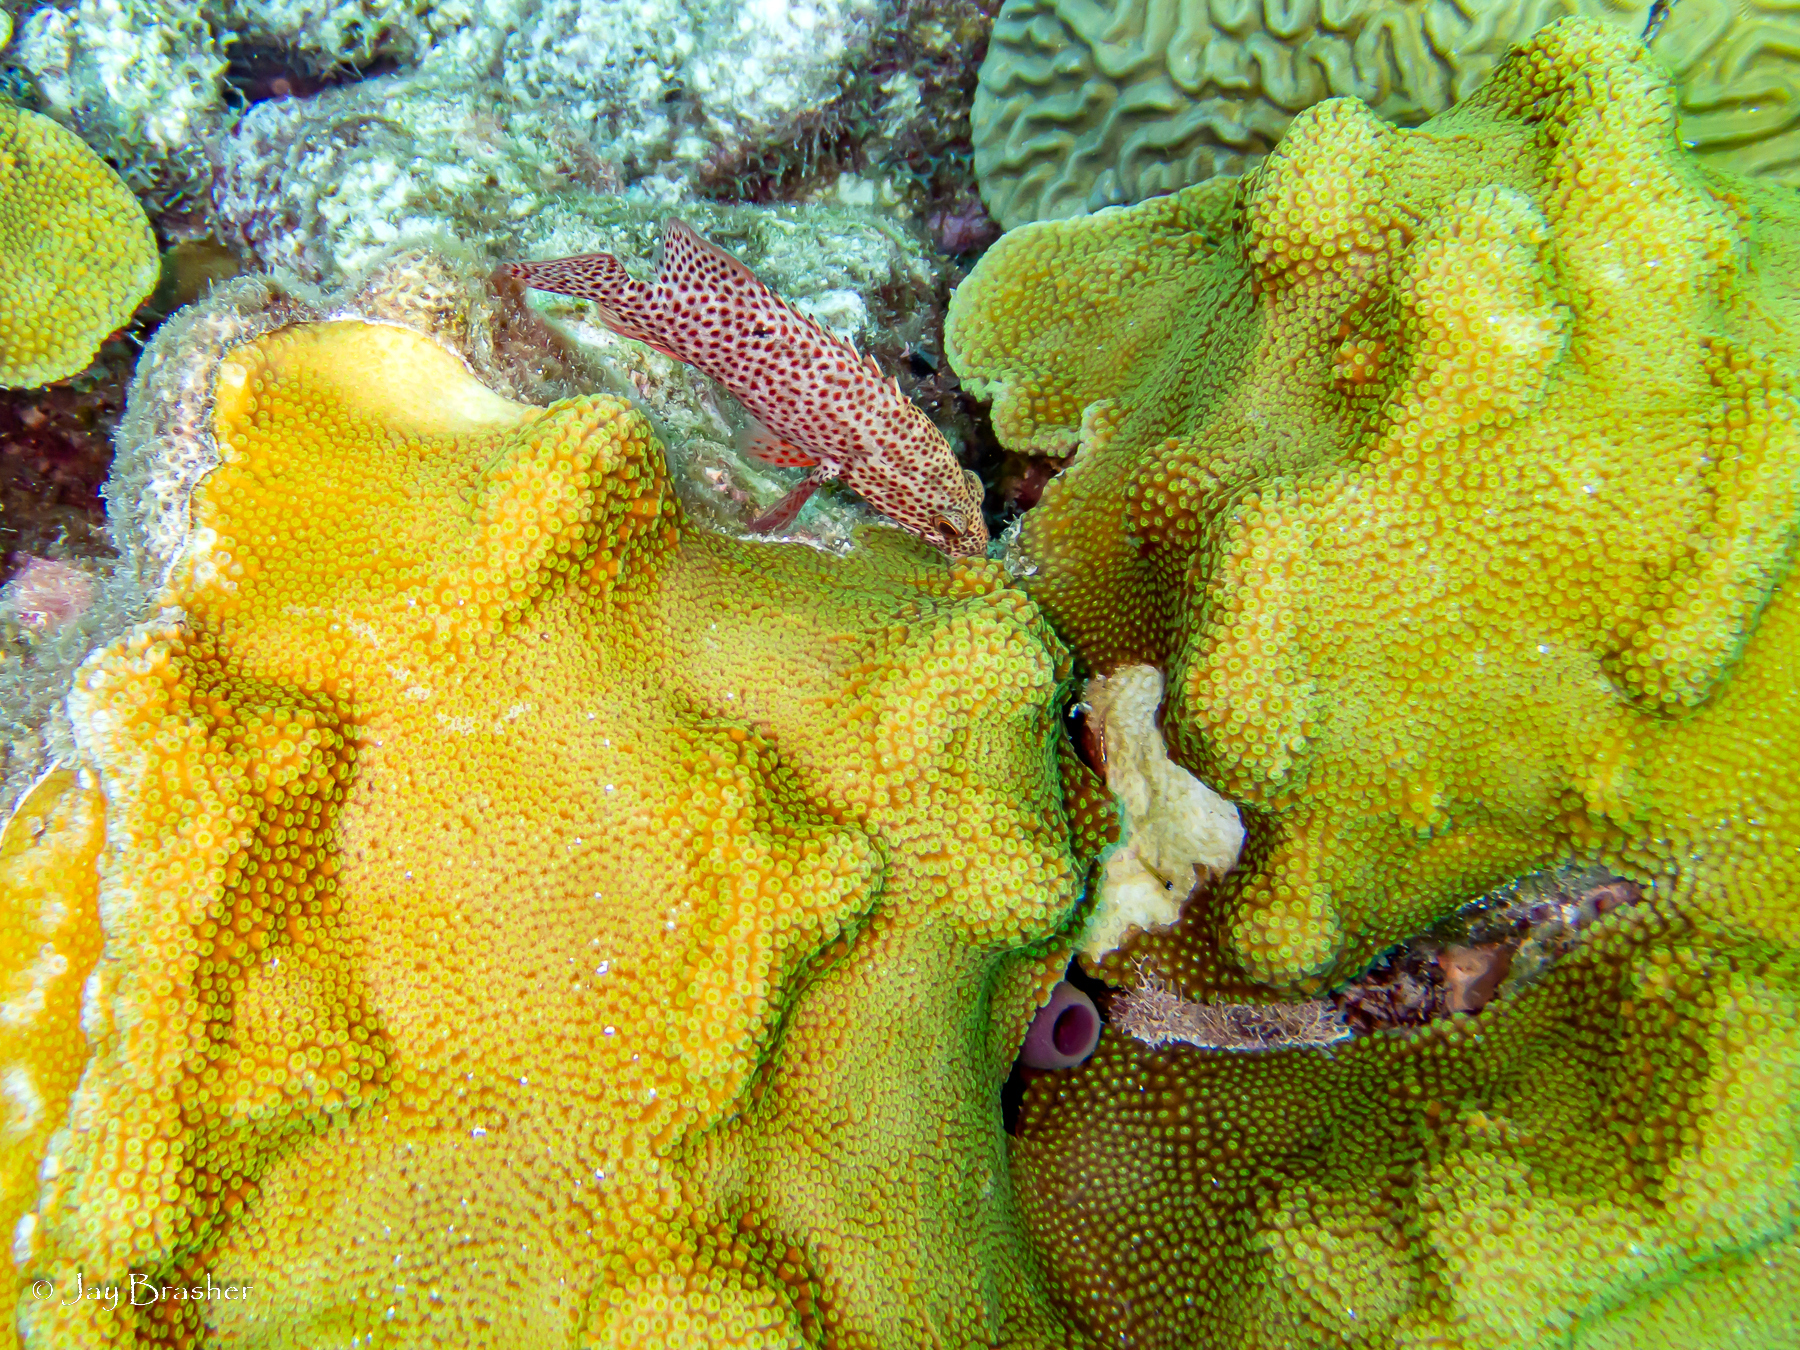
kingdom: Animalia
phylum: Chordata
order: Perciformes
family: Serranidae
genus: Cephalopholis
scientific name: Cephalopholis cruentata
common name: Graysby
